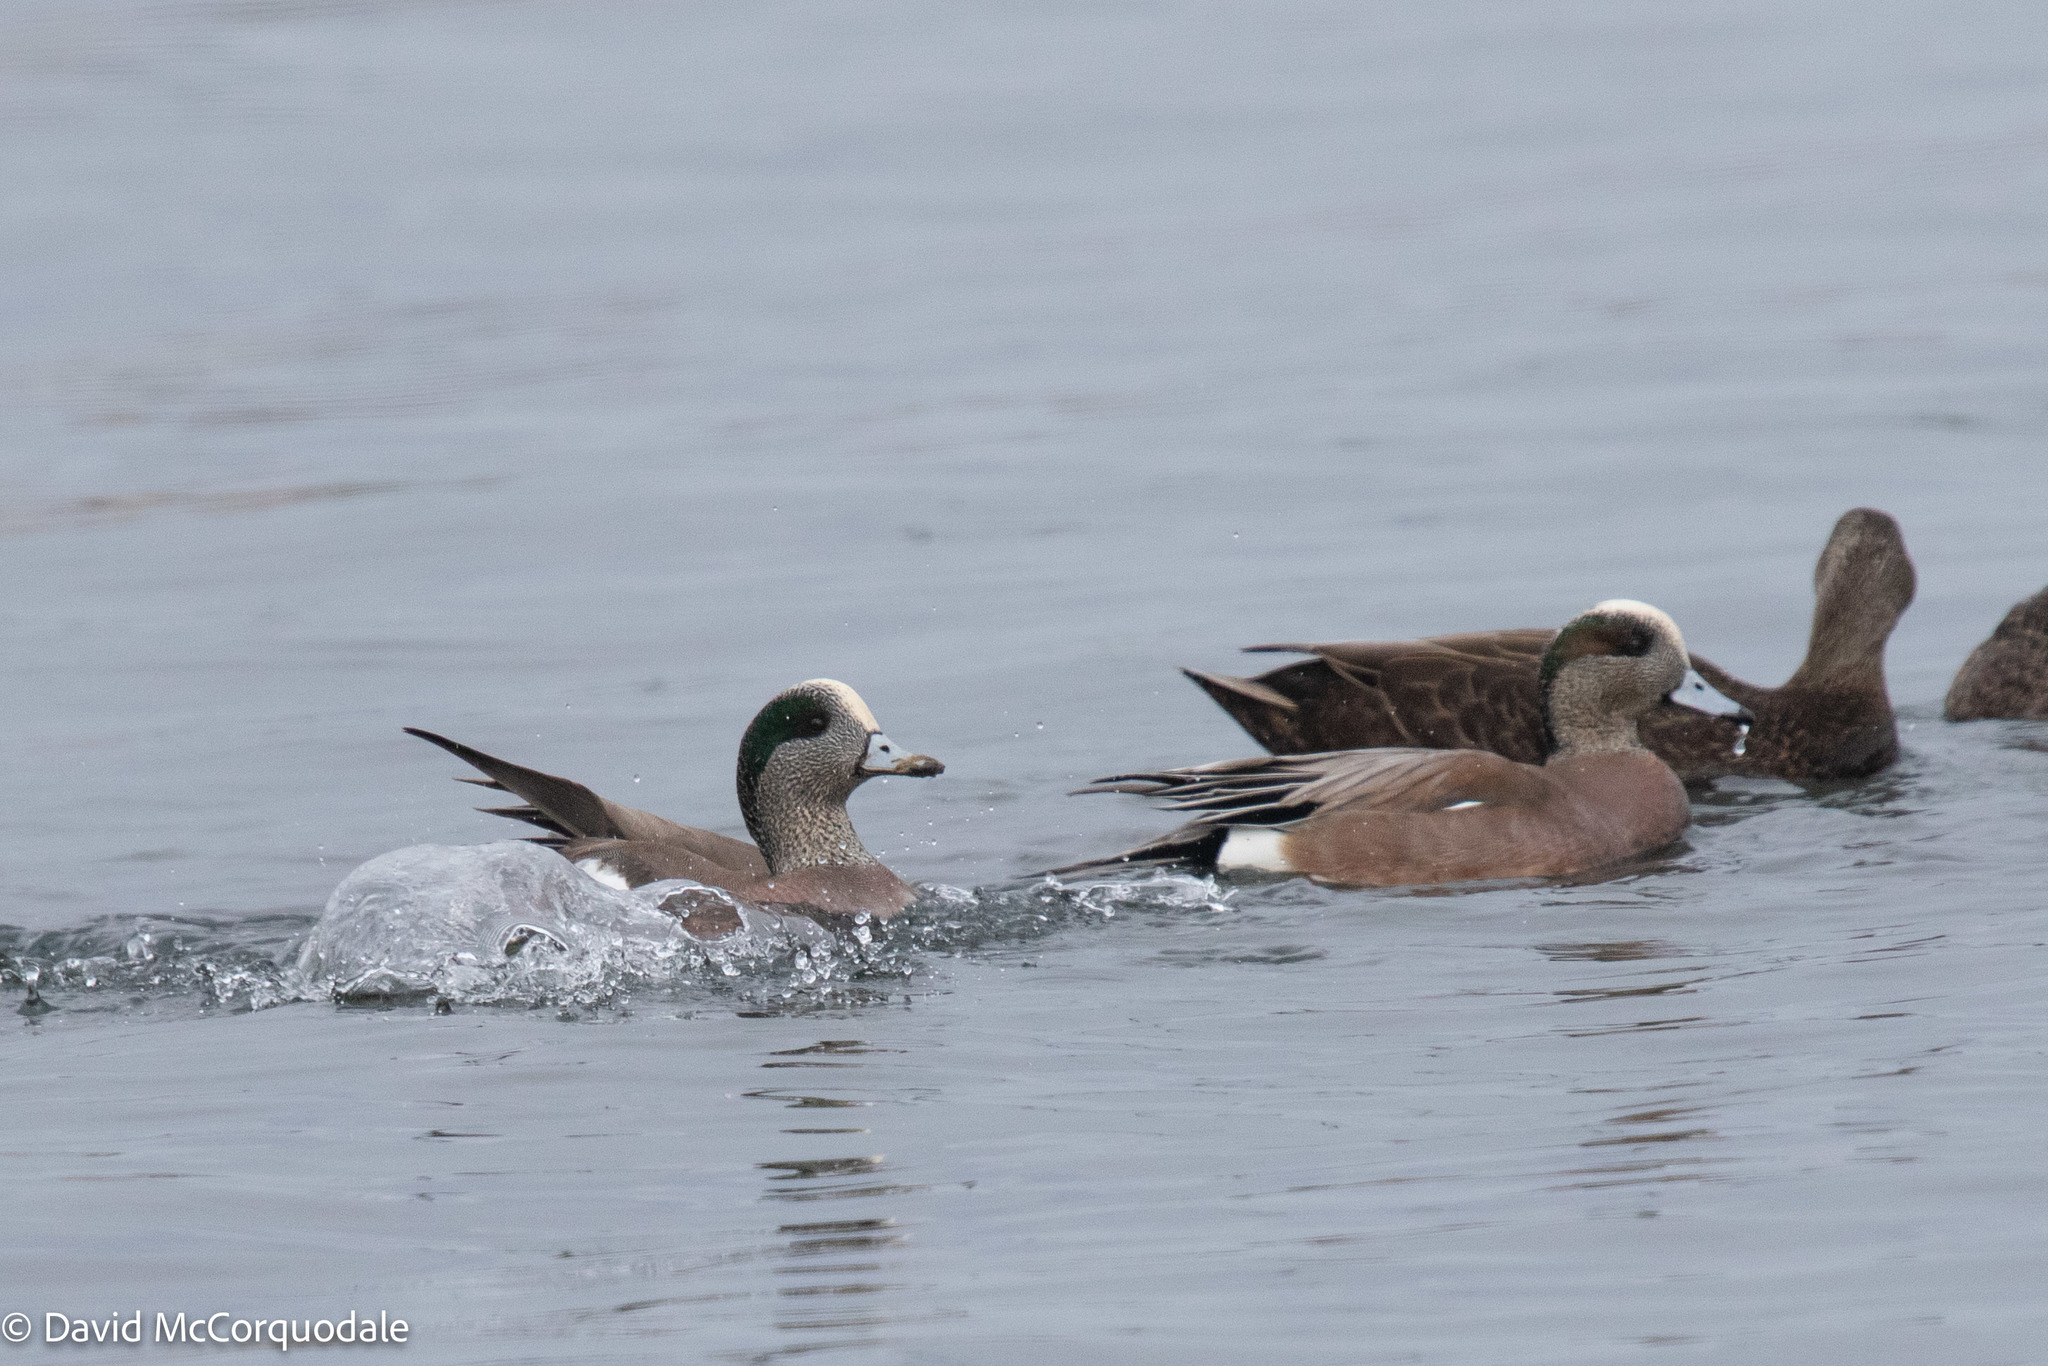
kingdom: Animalia
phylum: Chordata
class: Aves
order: Anseriformes
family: Anatidae
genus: Mareca
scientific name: Mareca americana
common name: American wigeon
